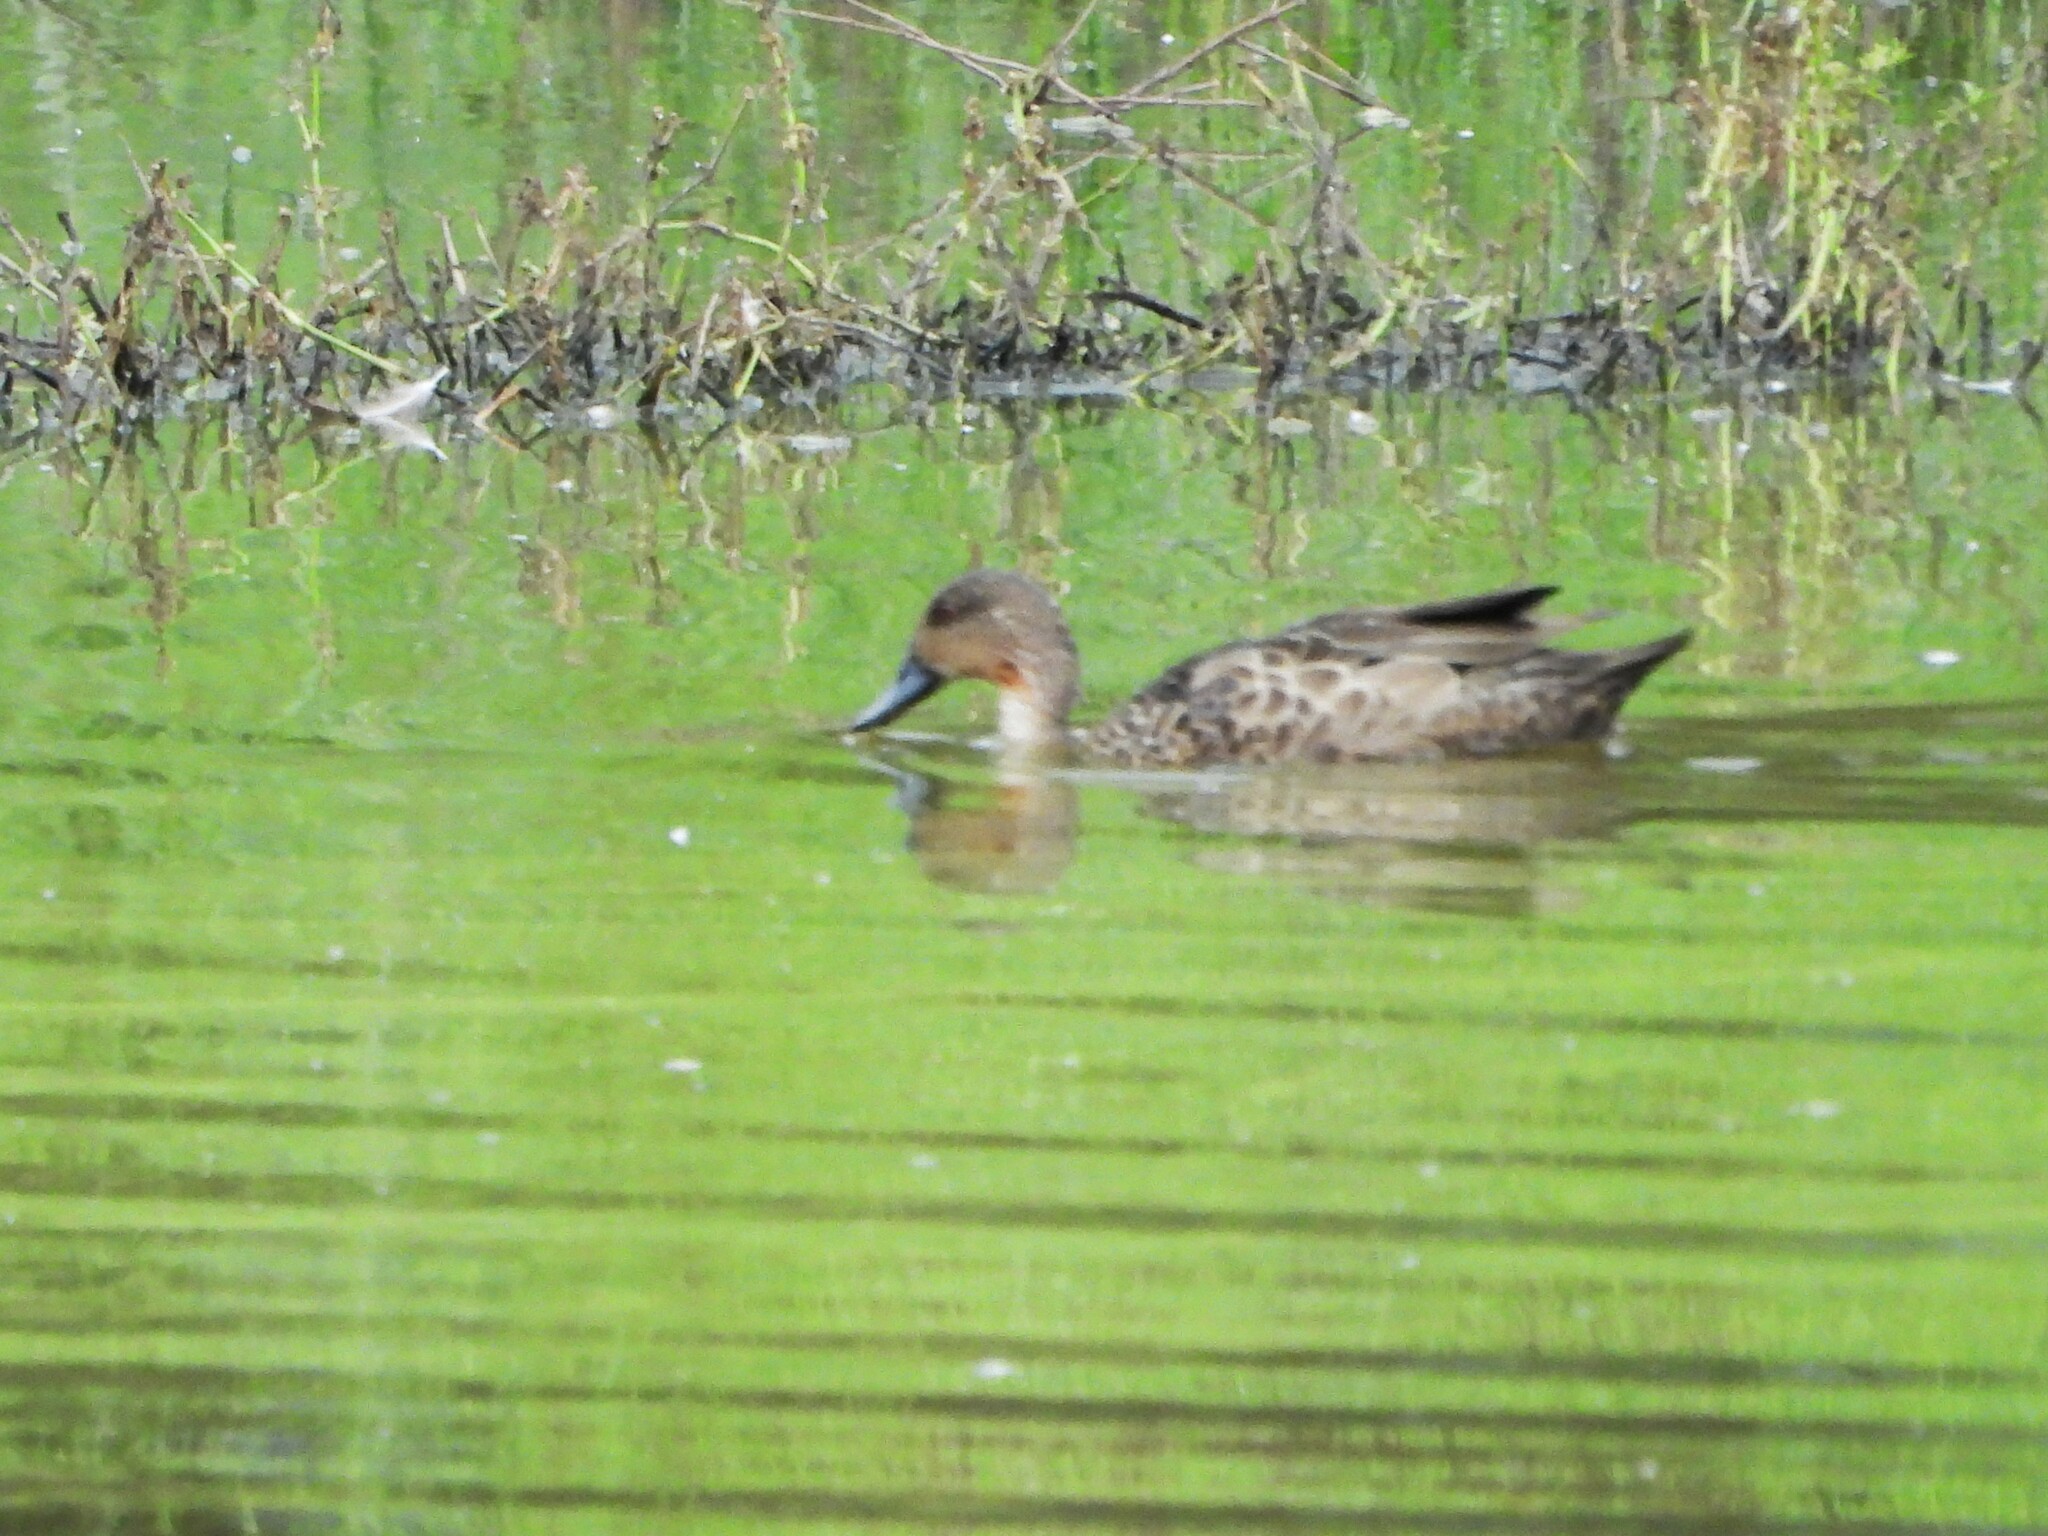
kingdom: Animalia
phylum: Chordata
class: Aves
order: Anseriformes
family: Anatidae
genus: Anas
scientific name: Anas gracilis
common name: Grey teal
